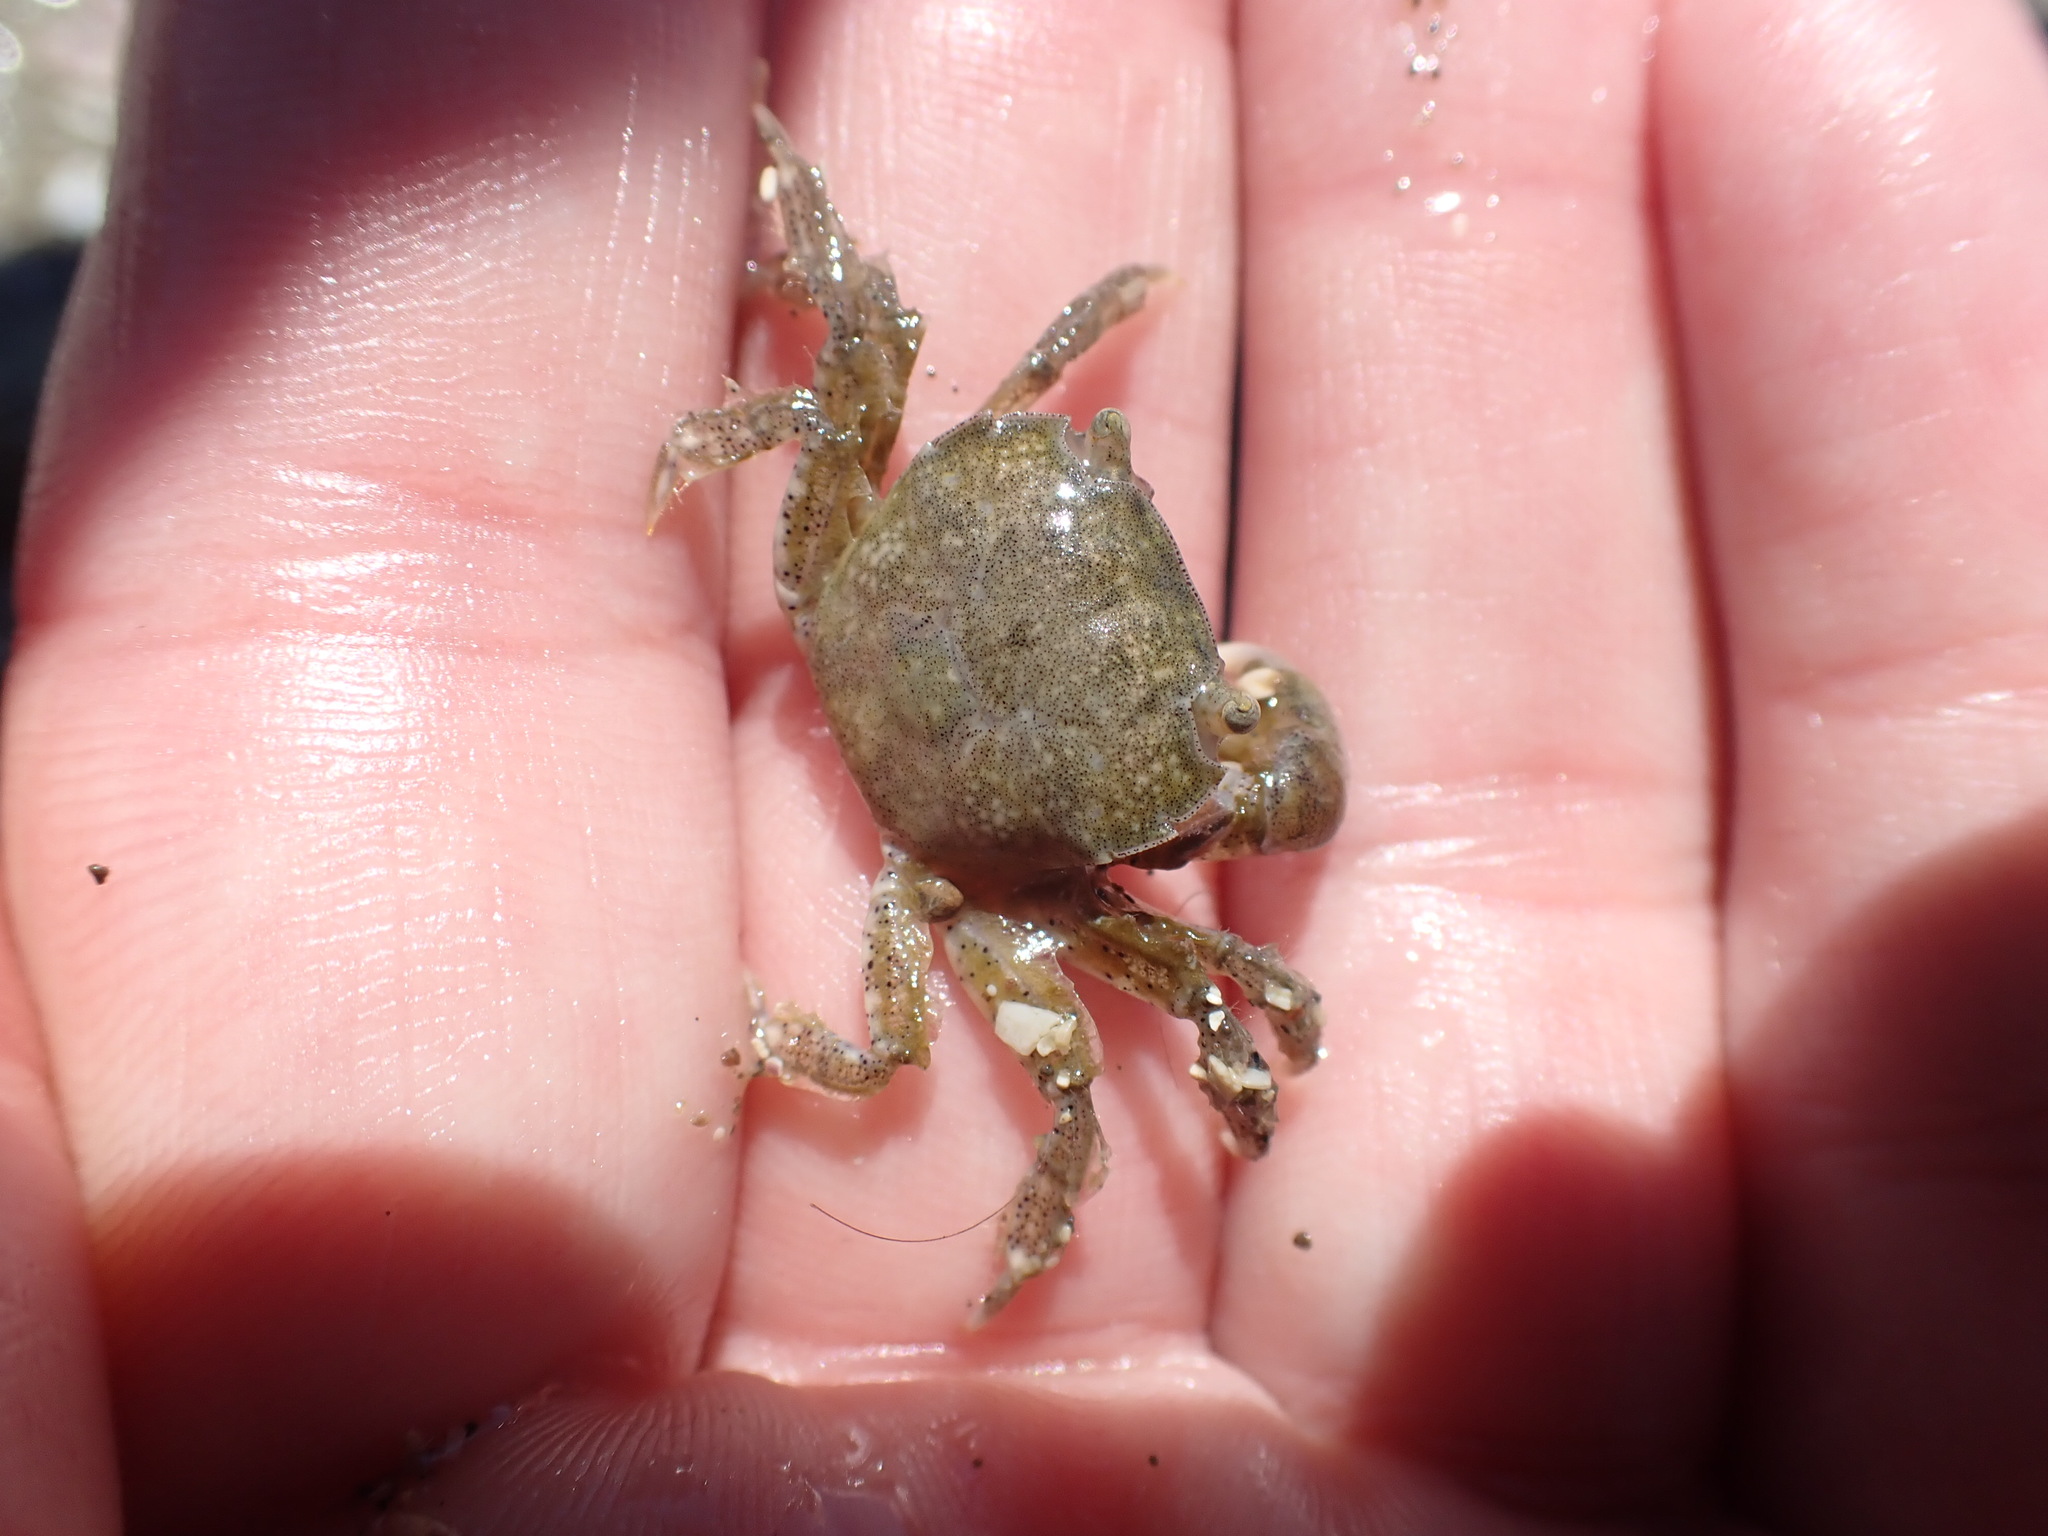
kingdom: Animalia
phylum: Arthropoda
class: Malacostraca
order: Decapoda
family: Varunidae
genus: Hemigrapsus
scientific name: Hemigrapsus crenulatus
